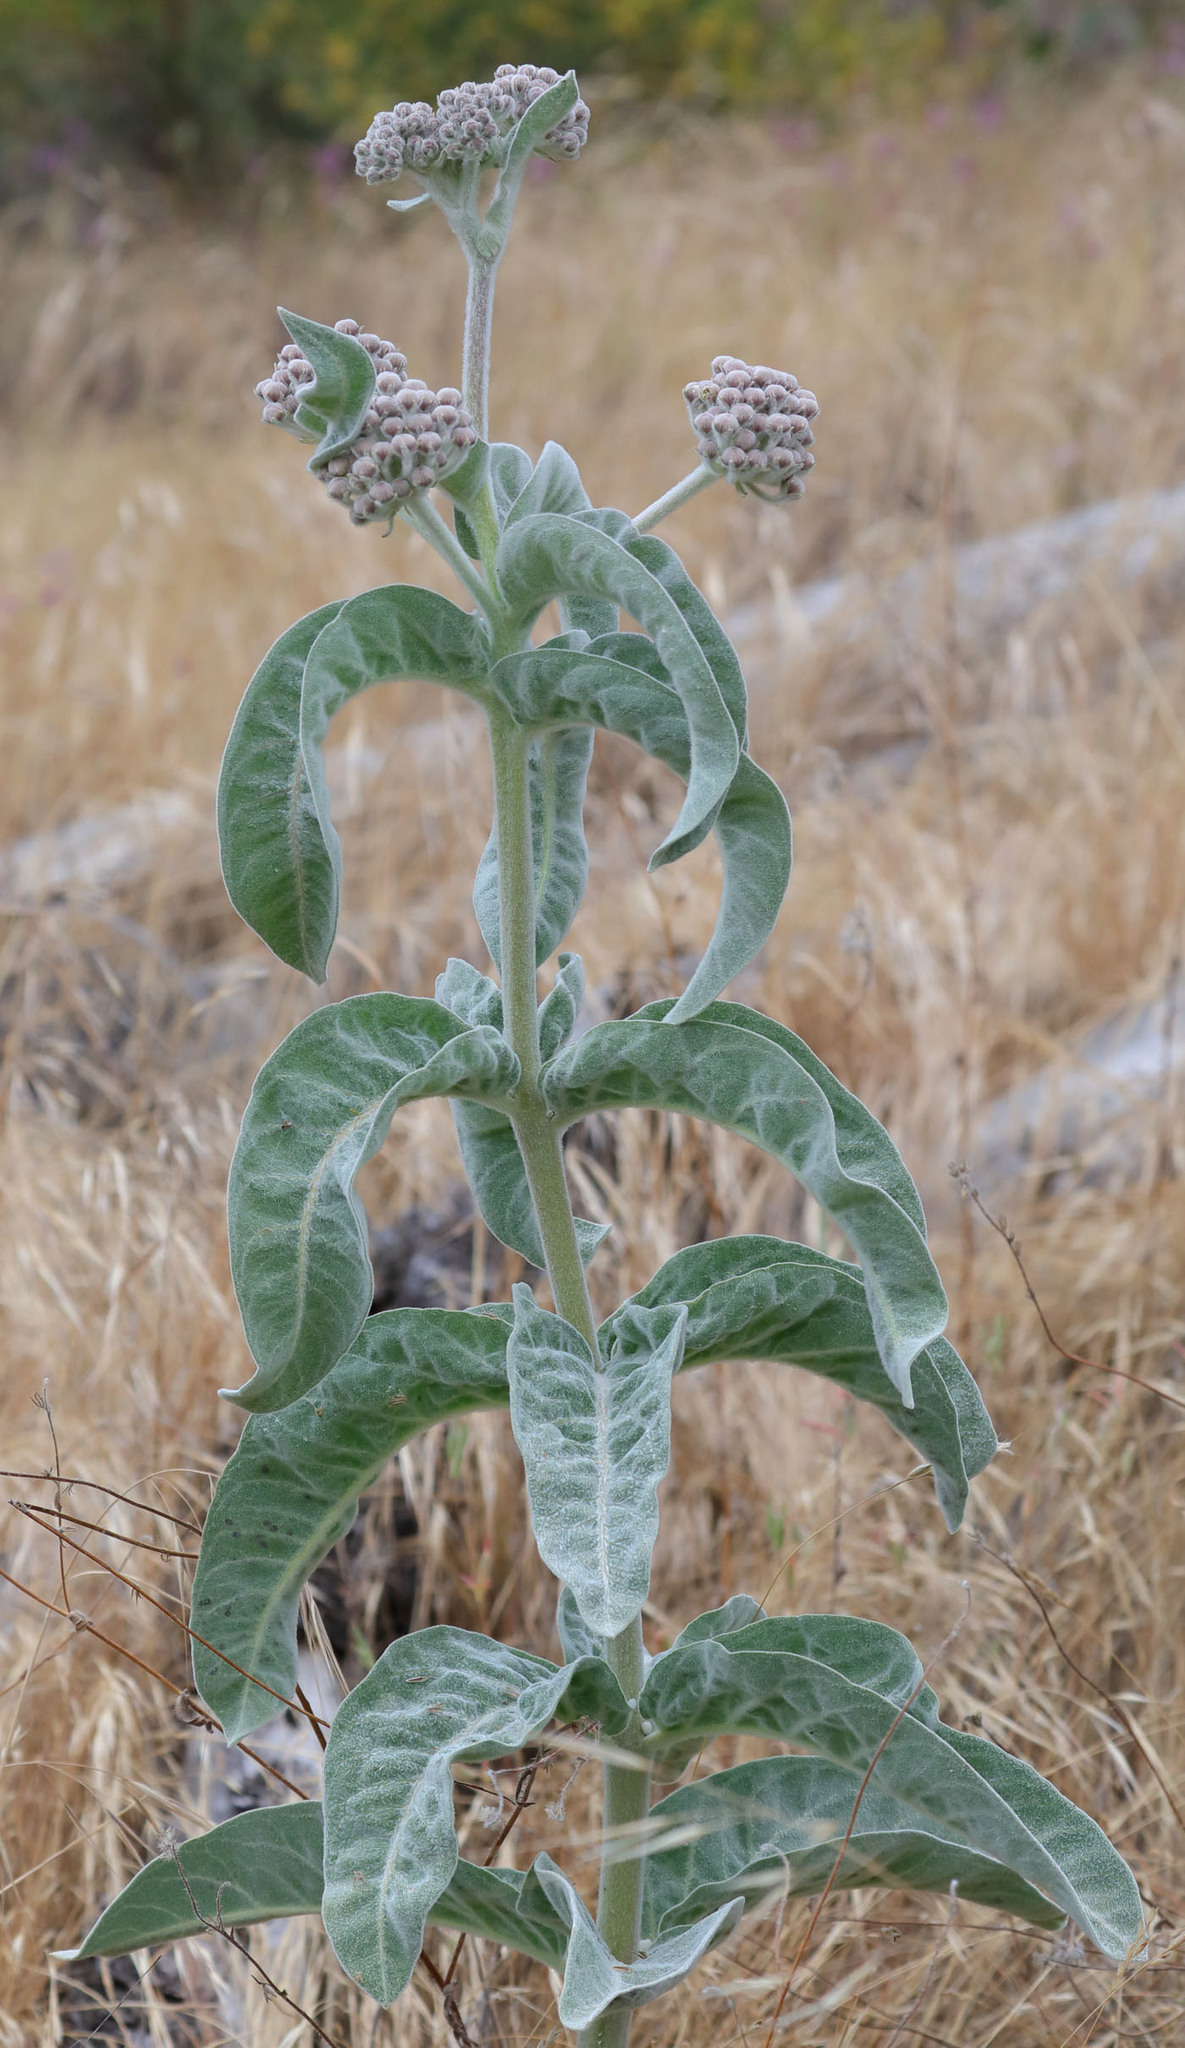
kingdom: Plantae
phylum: Tracheophyta
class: Magnoliopsida
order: Gentianales
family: Apocynaceae
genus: Asclepias
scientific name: Asclepias eriocarpa
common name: Indian milkweed
